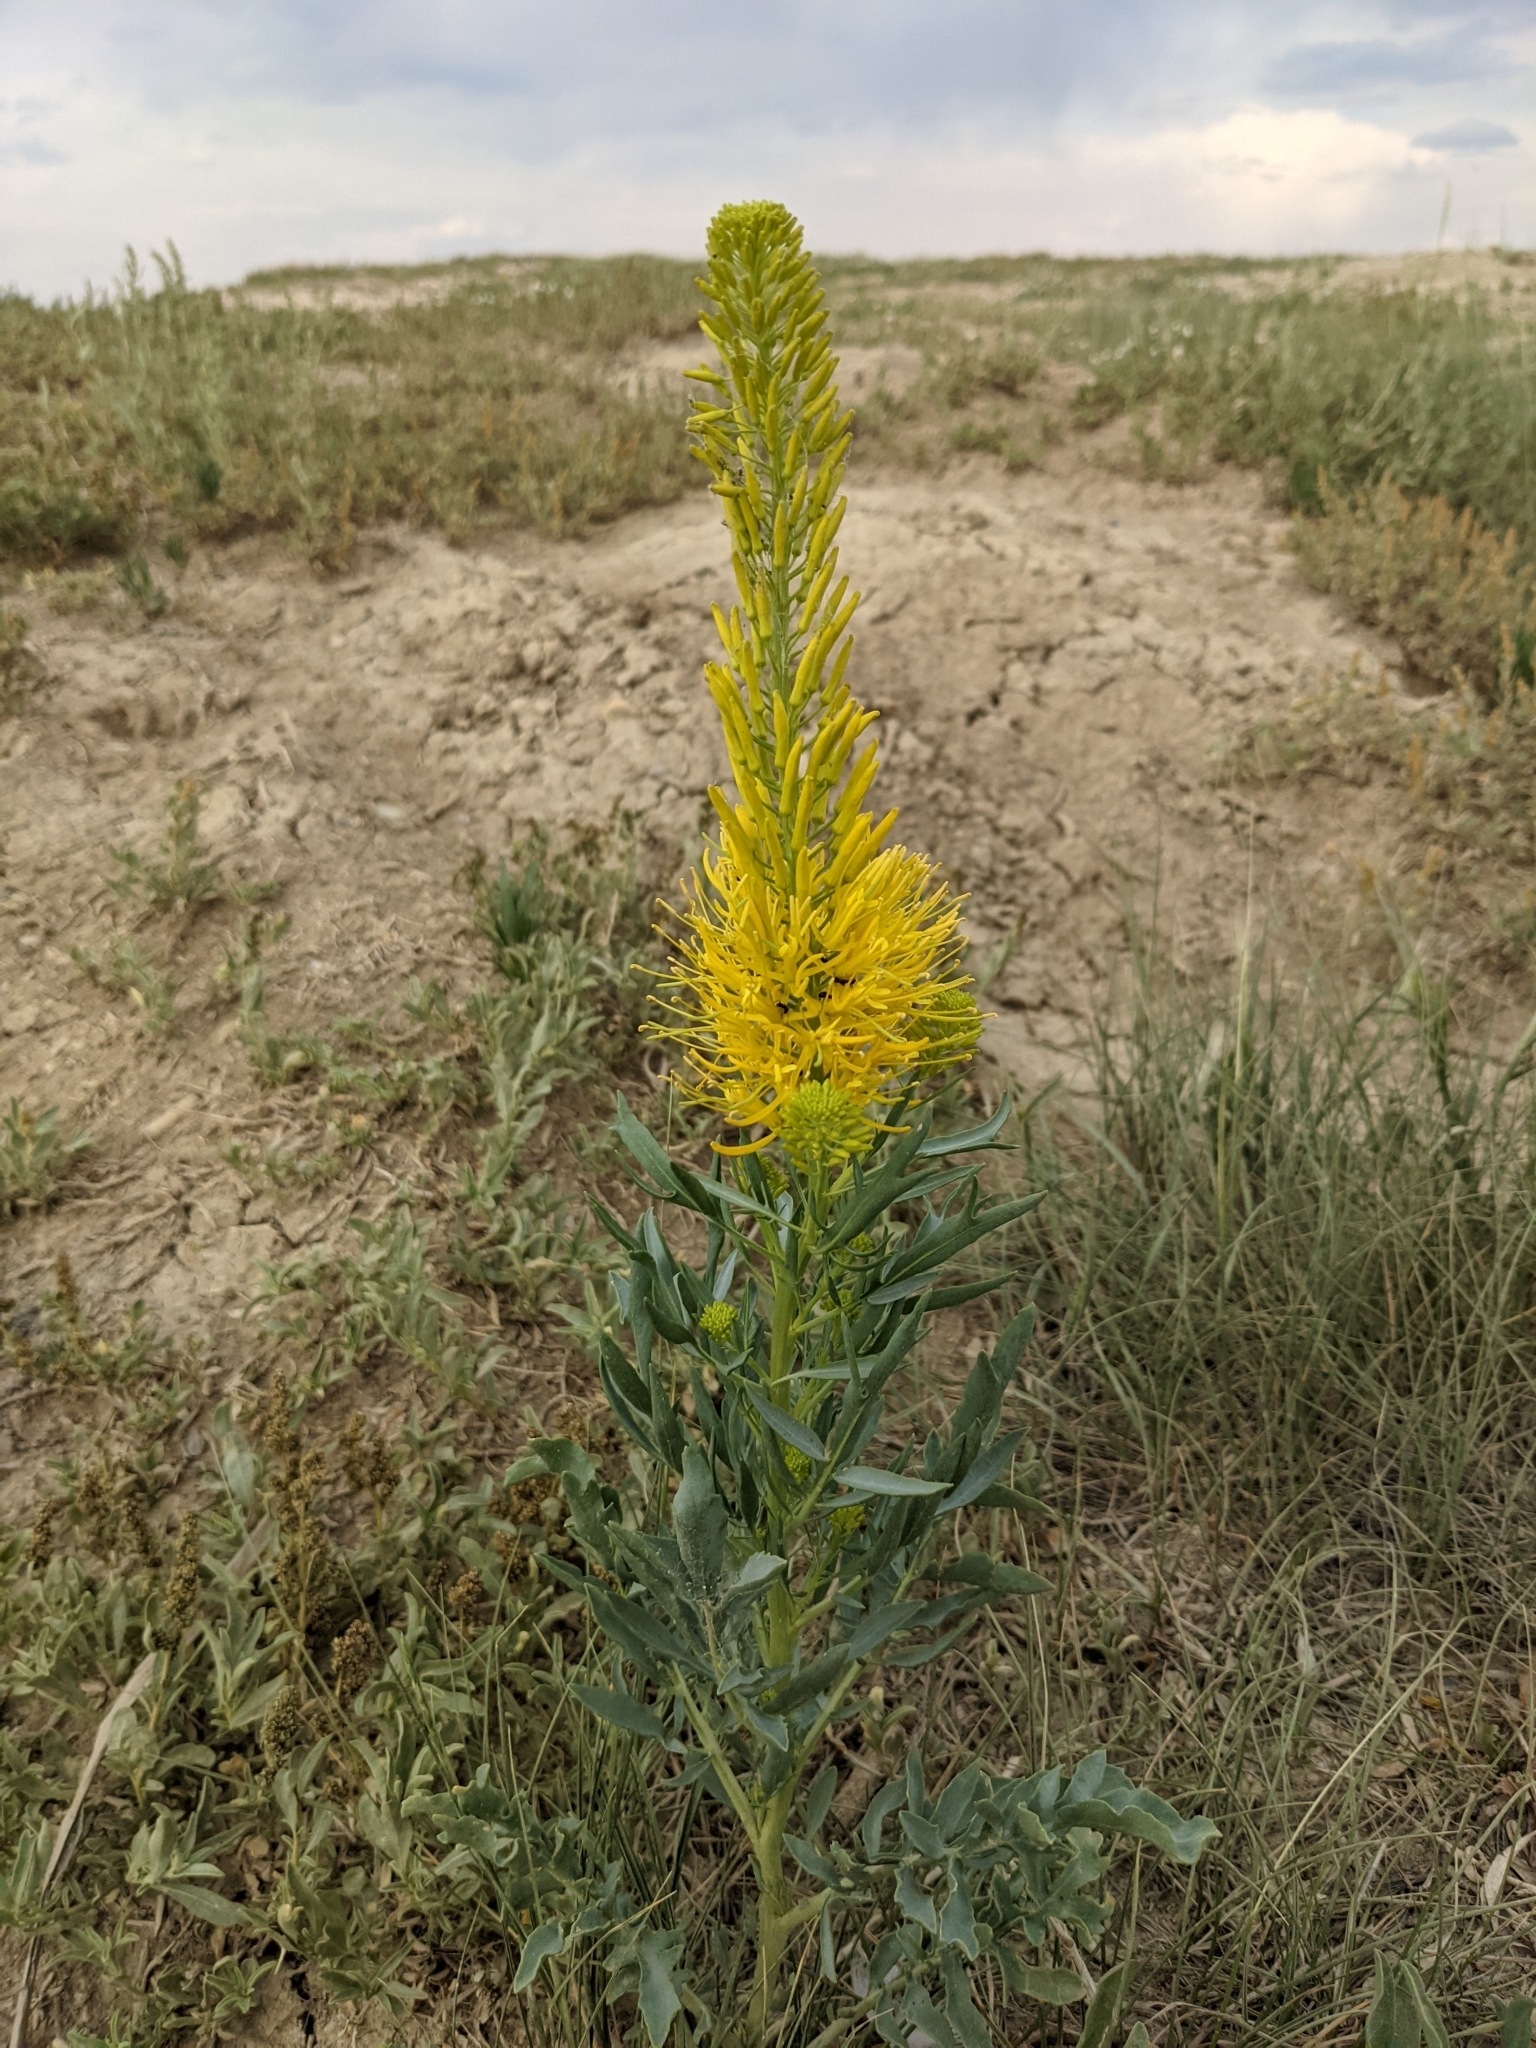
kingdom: Plantae
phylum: Tracheophyta
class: Magnoliopsida
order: Brassicales
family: Brassicaceae
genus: Stanleya
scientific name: Stanleya pinnata
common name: Prince's-plume
